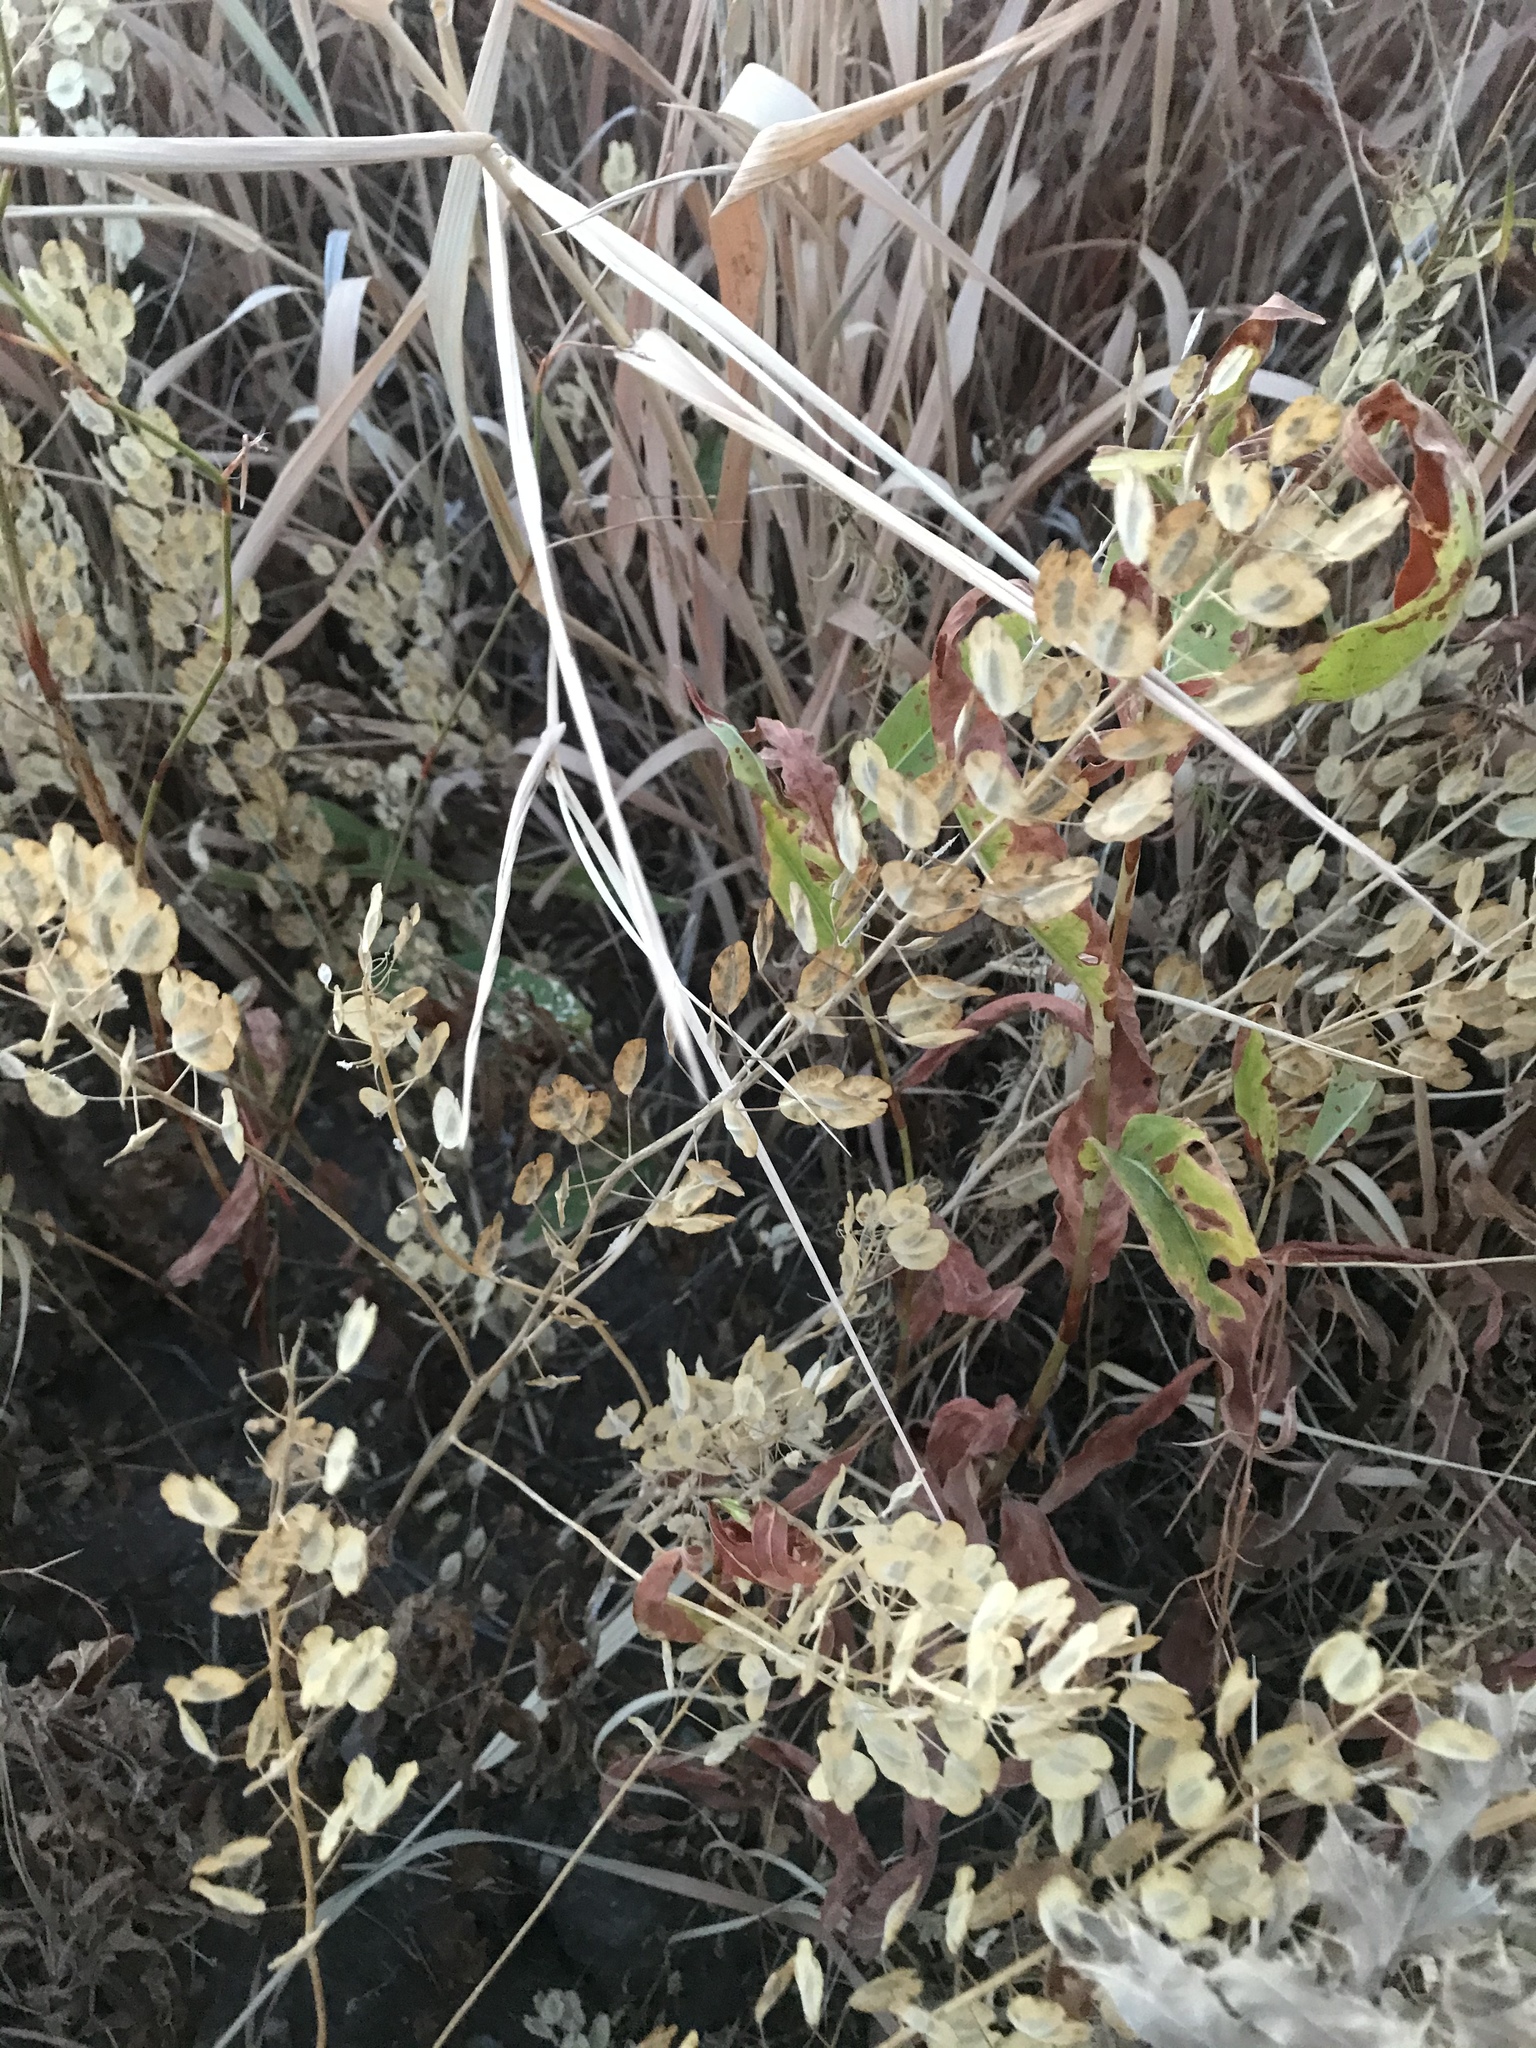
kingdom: Plantae
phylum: Tracheophyta
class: Magnoliopsida
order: Brassicales
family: Brassicaceae
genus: Thlaspi
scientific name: Thlaspi arvense
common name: Field pennycress
